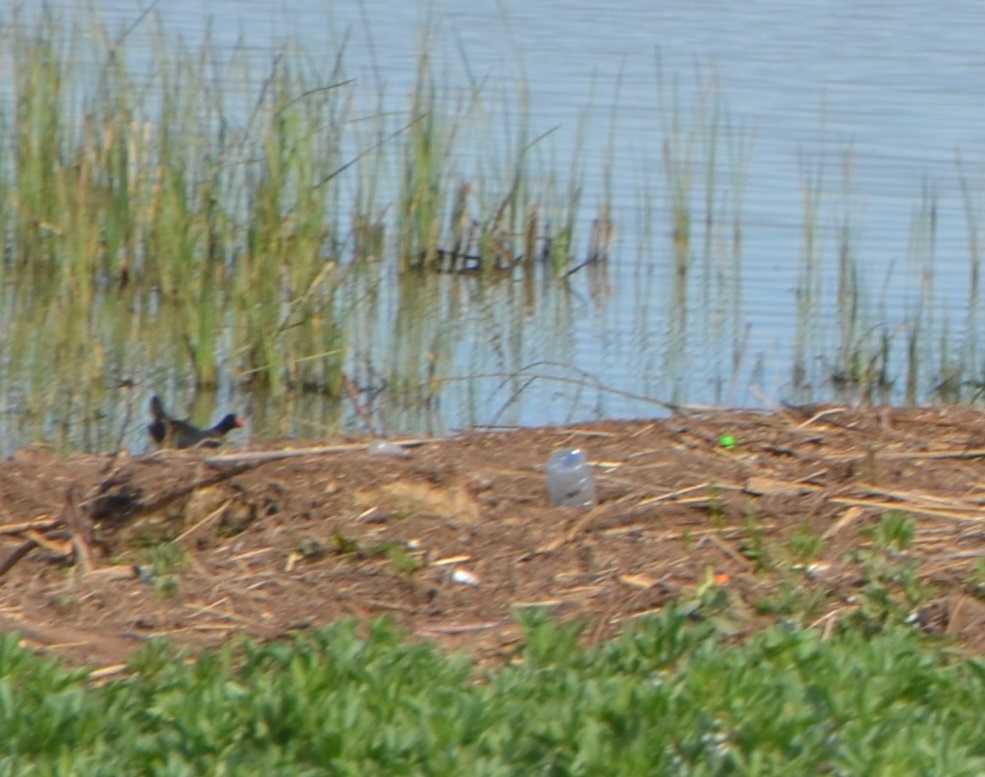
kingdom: Animalia
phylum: Chordata
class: Aves
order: Gruiformes
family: Rallidae
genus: Gallinula
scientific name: Gallinula chloropus
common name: Common moorhen
